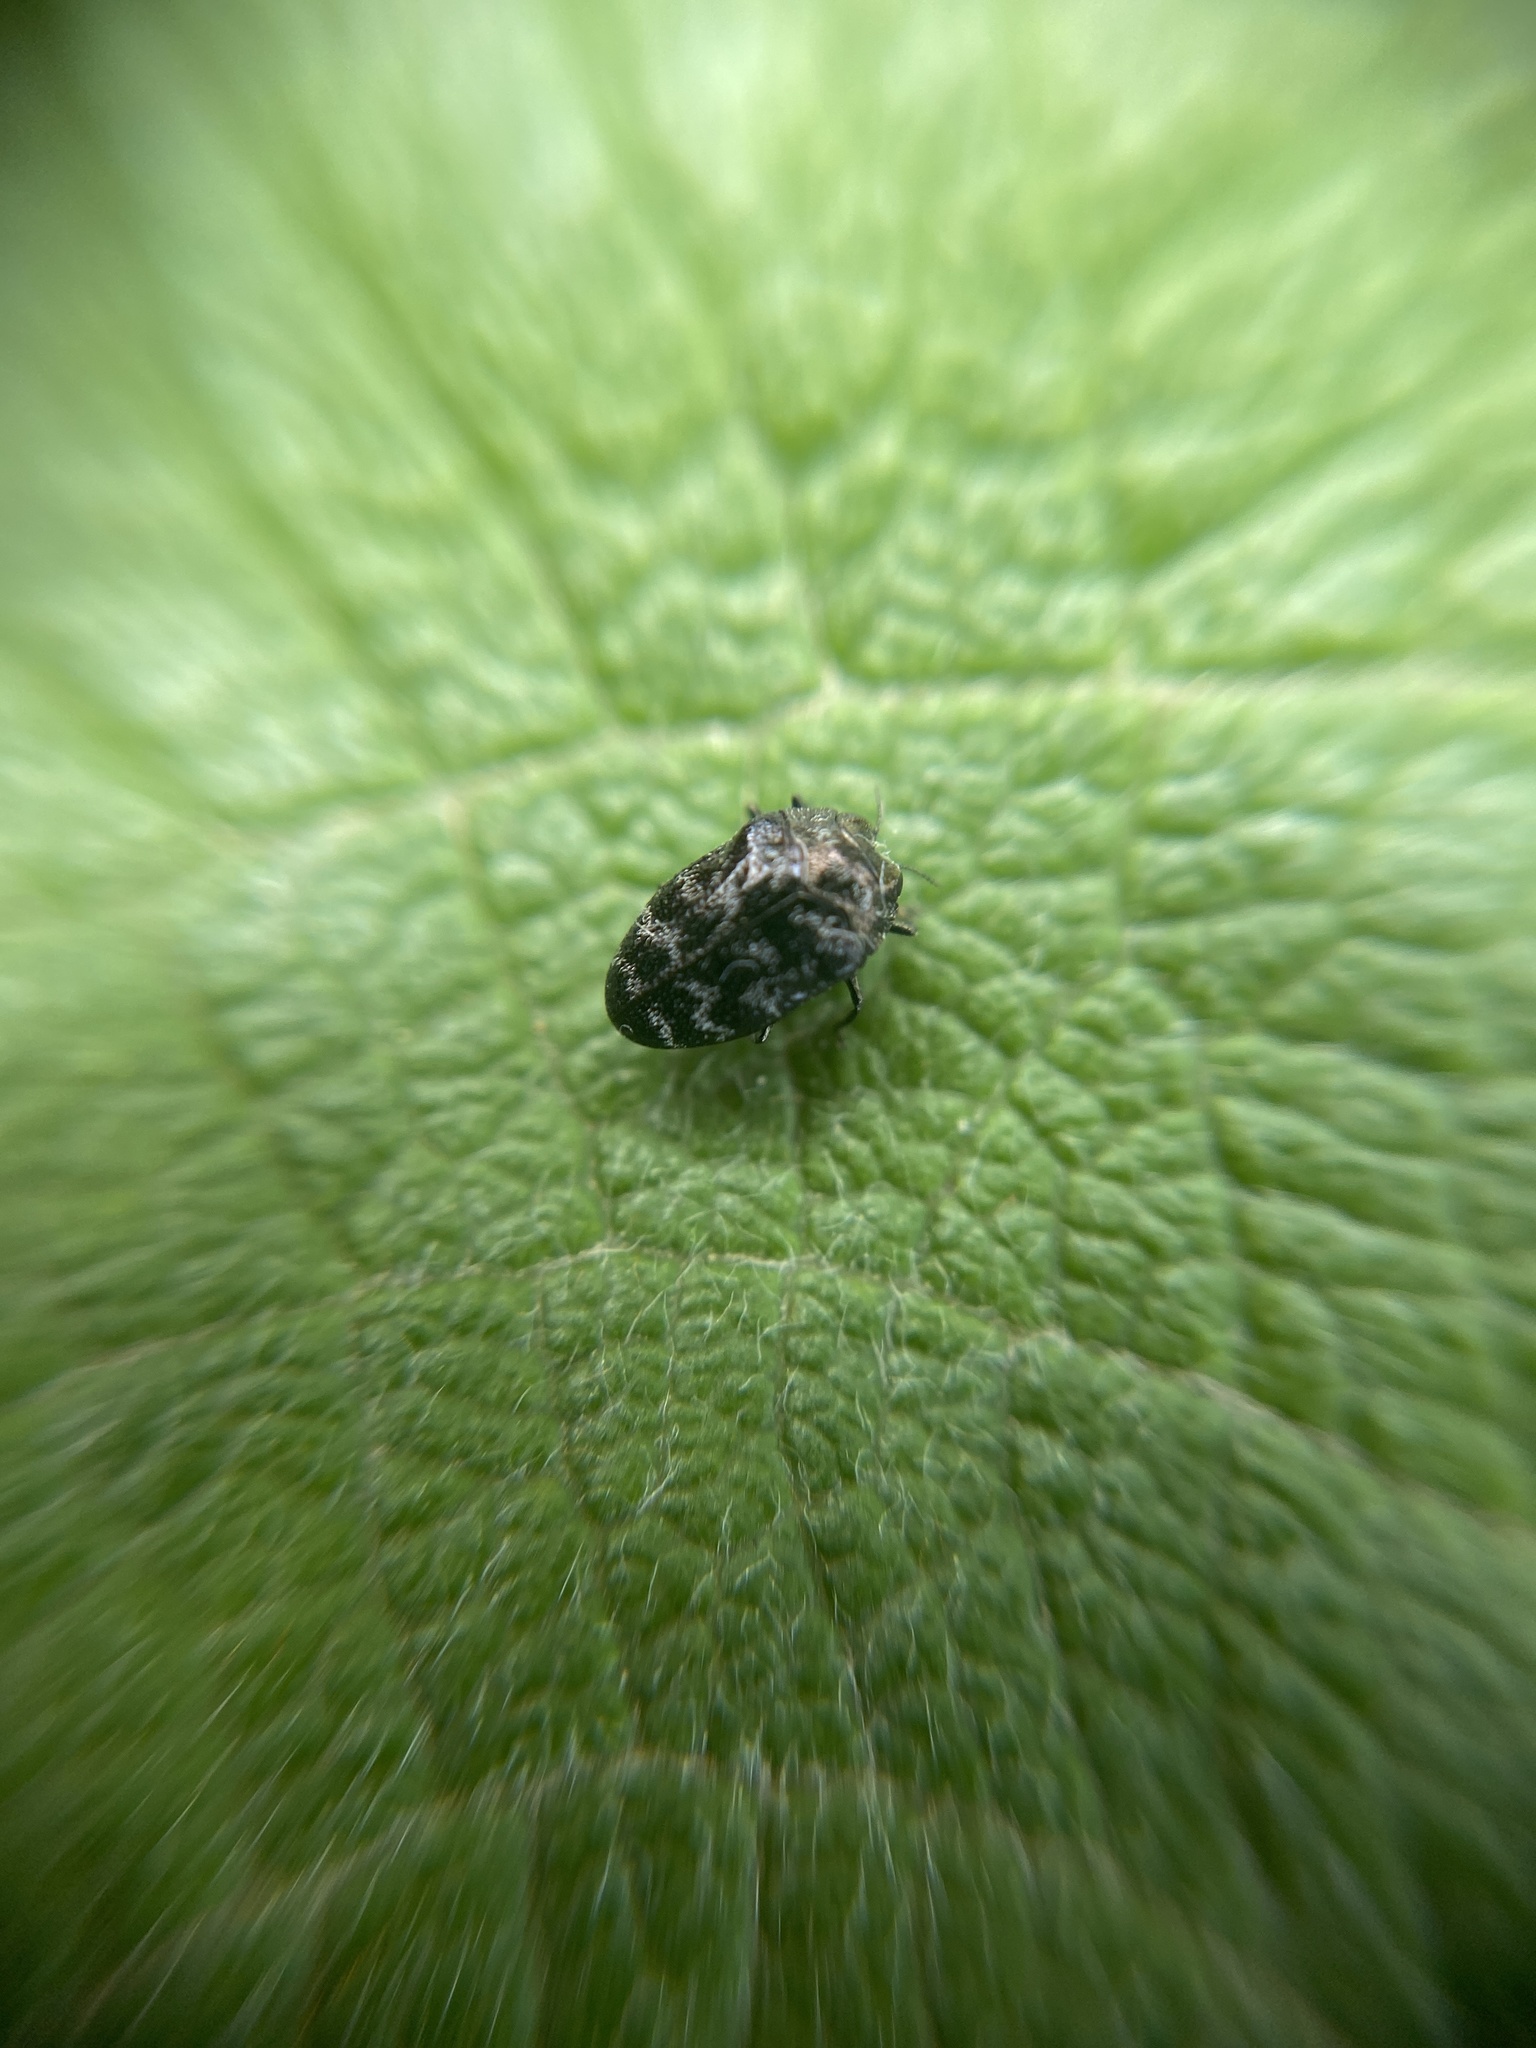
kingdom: Animalia
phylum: Arthropoda
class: Insecta
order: Coleoptera
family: Buprestidae
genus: Trachys
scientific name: Trachys minutus
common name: Metallic wood-boring beetle
